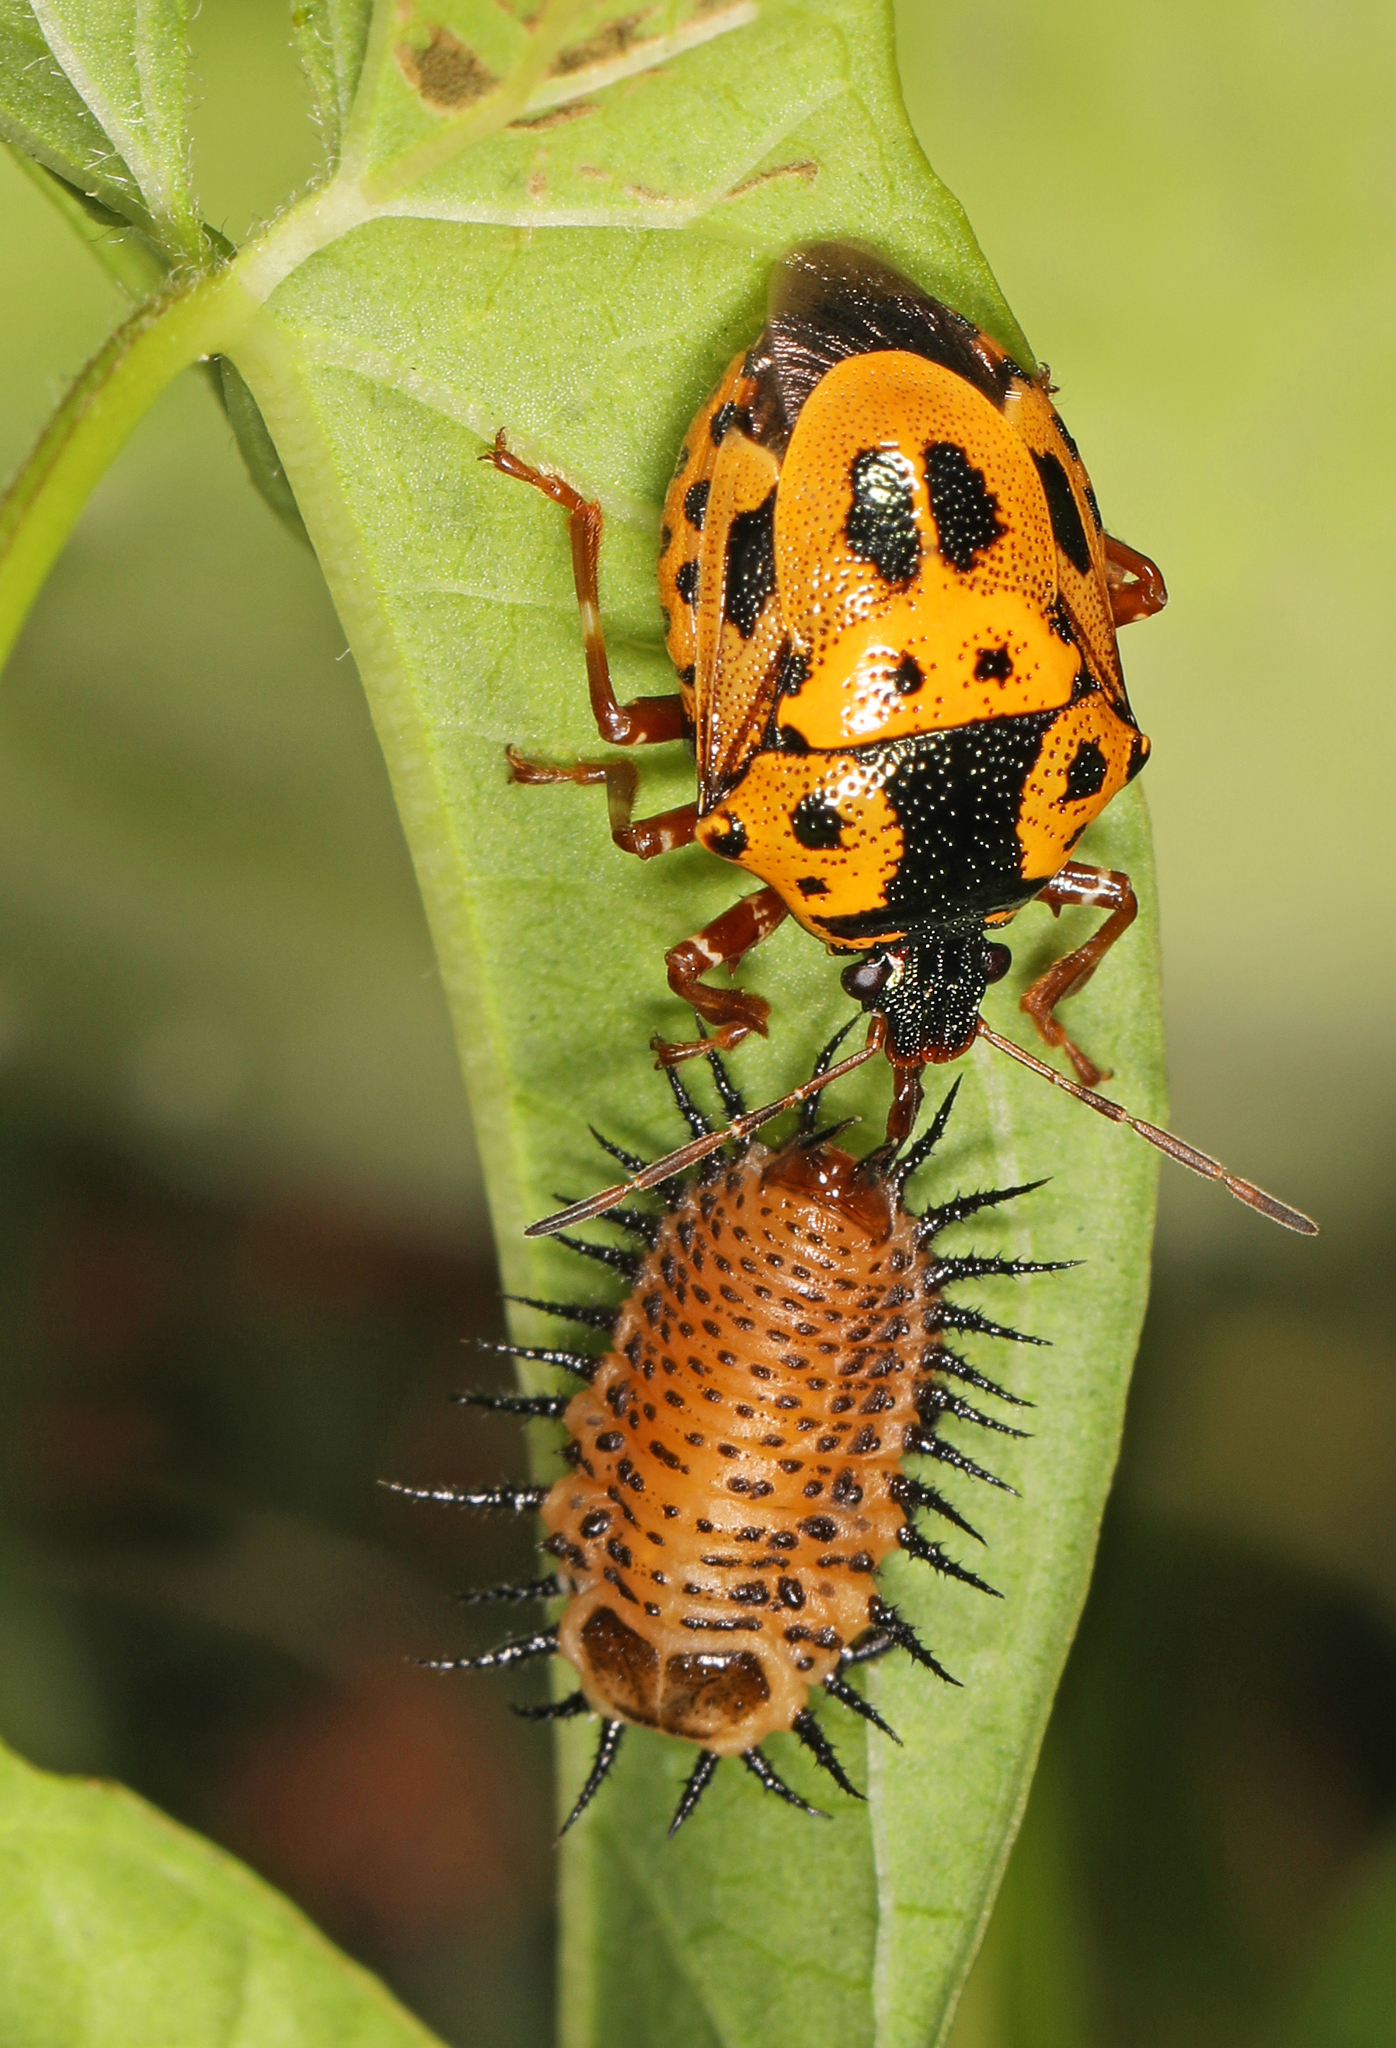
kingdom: Animalia
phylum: Arthropoda
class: Insecta
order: Hemiptera
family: Pentatomidae
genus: Stiretrus
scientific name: Stiretrus anchorago
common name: Anchor stink bug
